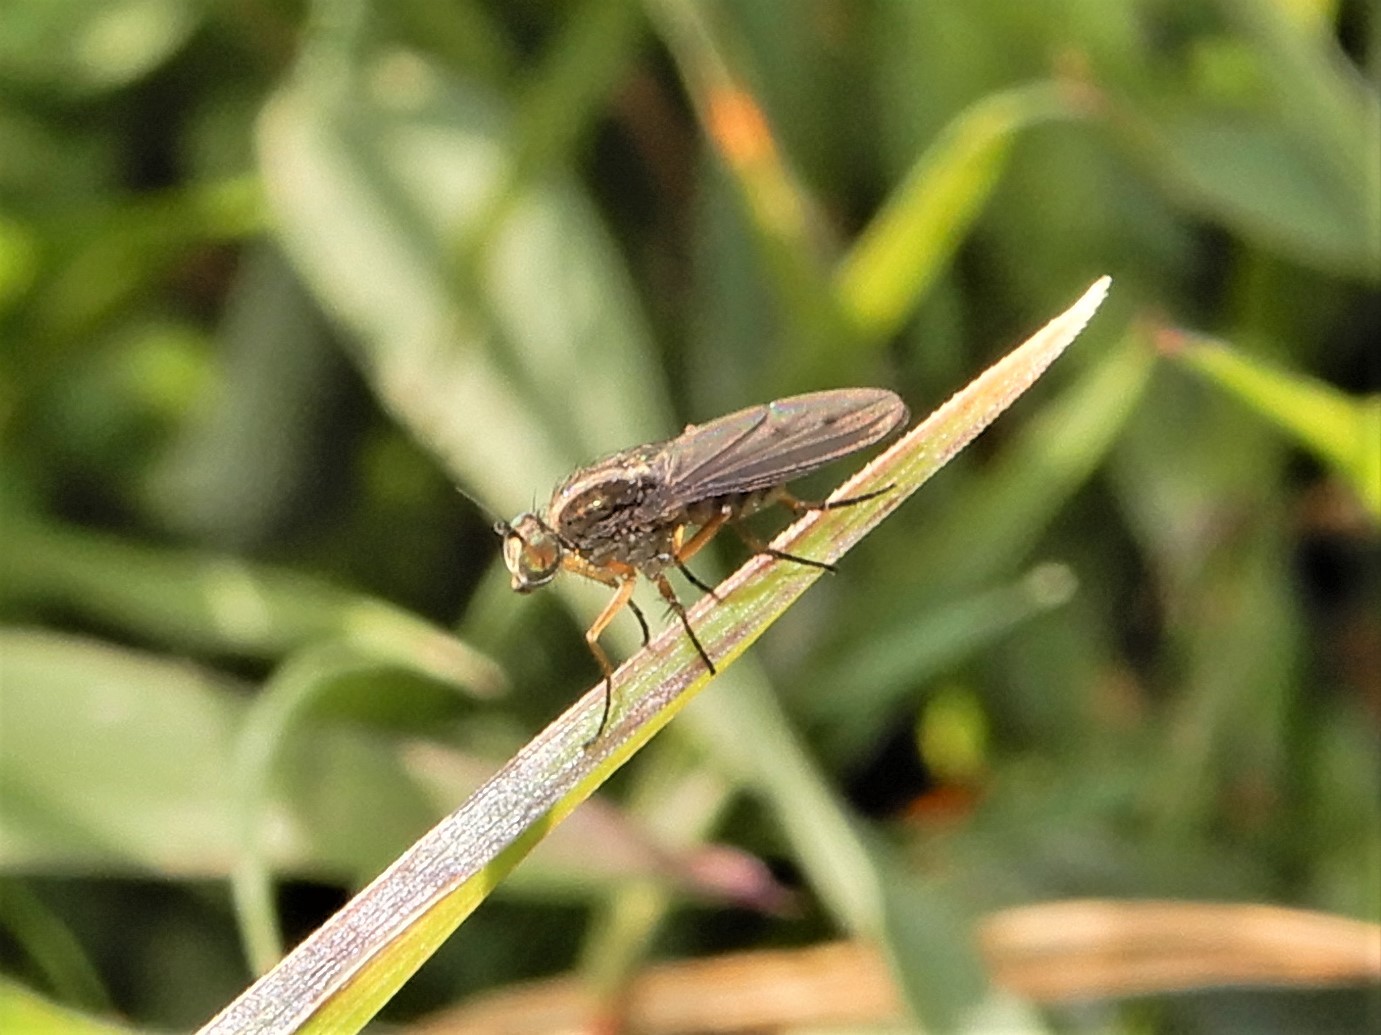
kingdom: Animalia
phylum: Arthropoda
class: Insecta
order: Diptera
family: Dolichopodidae
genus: Tetrachaetus
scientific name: Tetrachaetus bipunctatus
